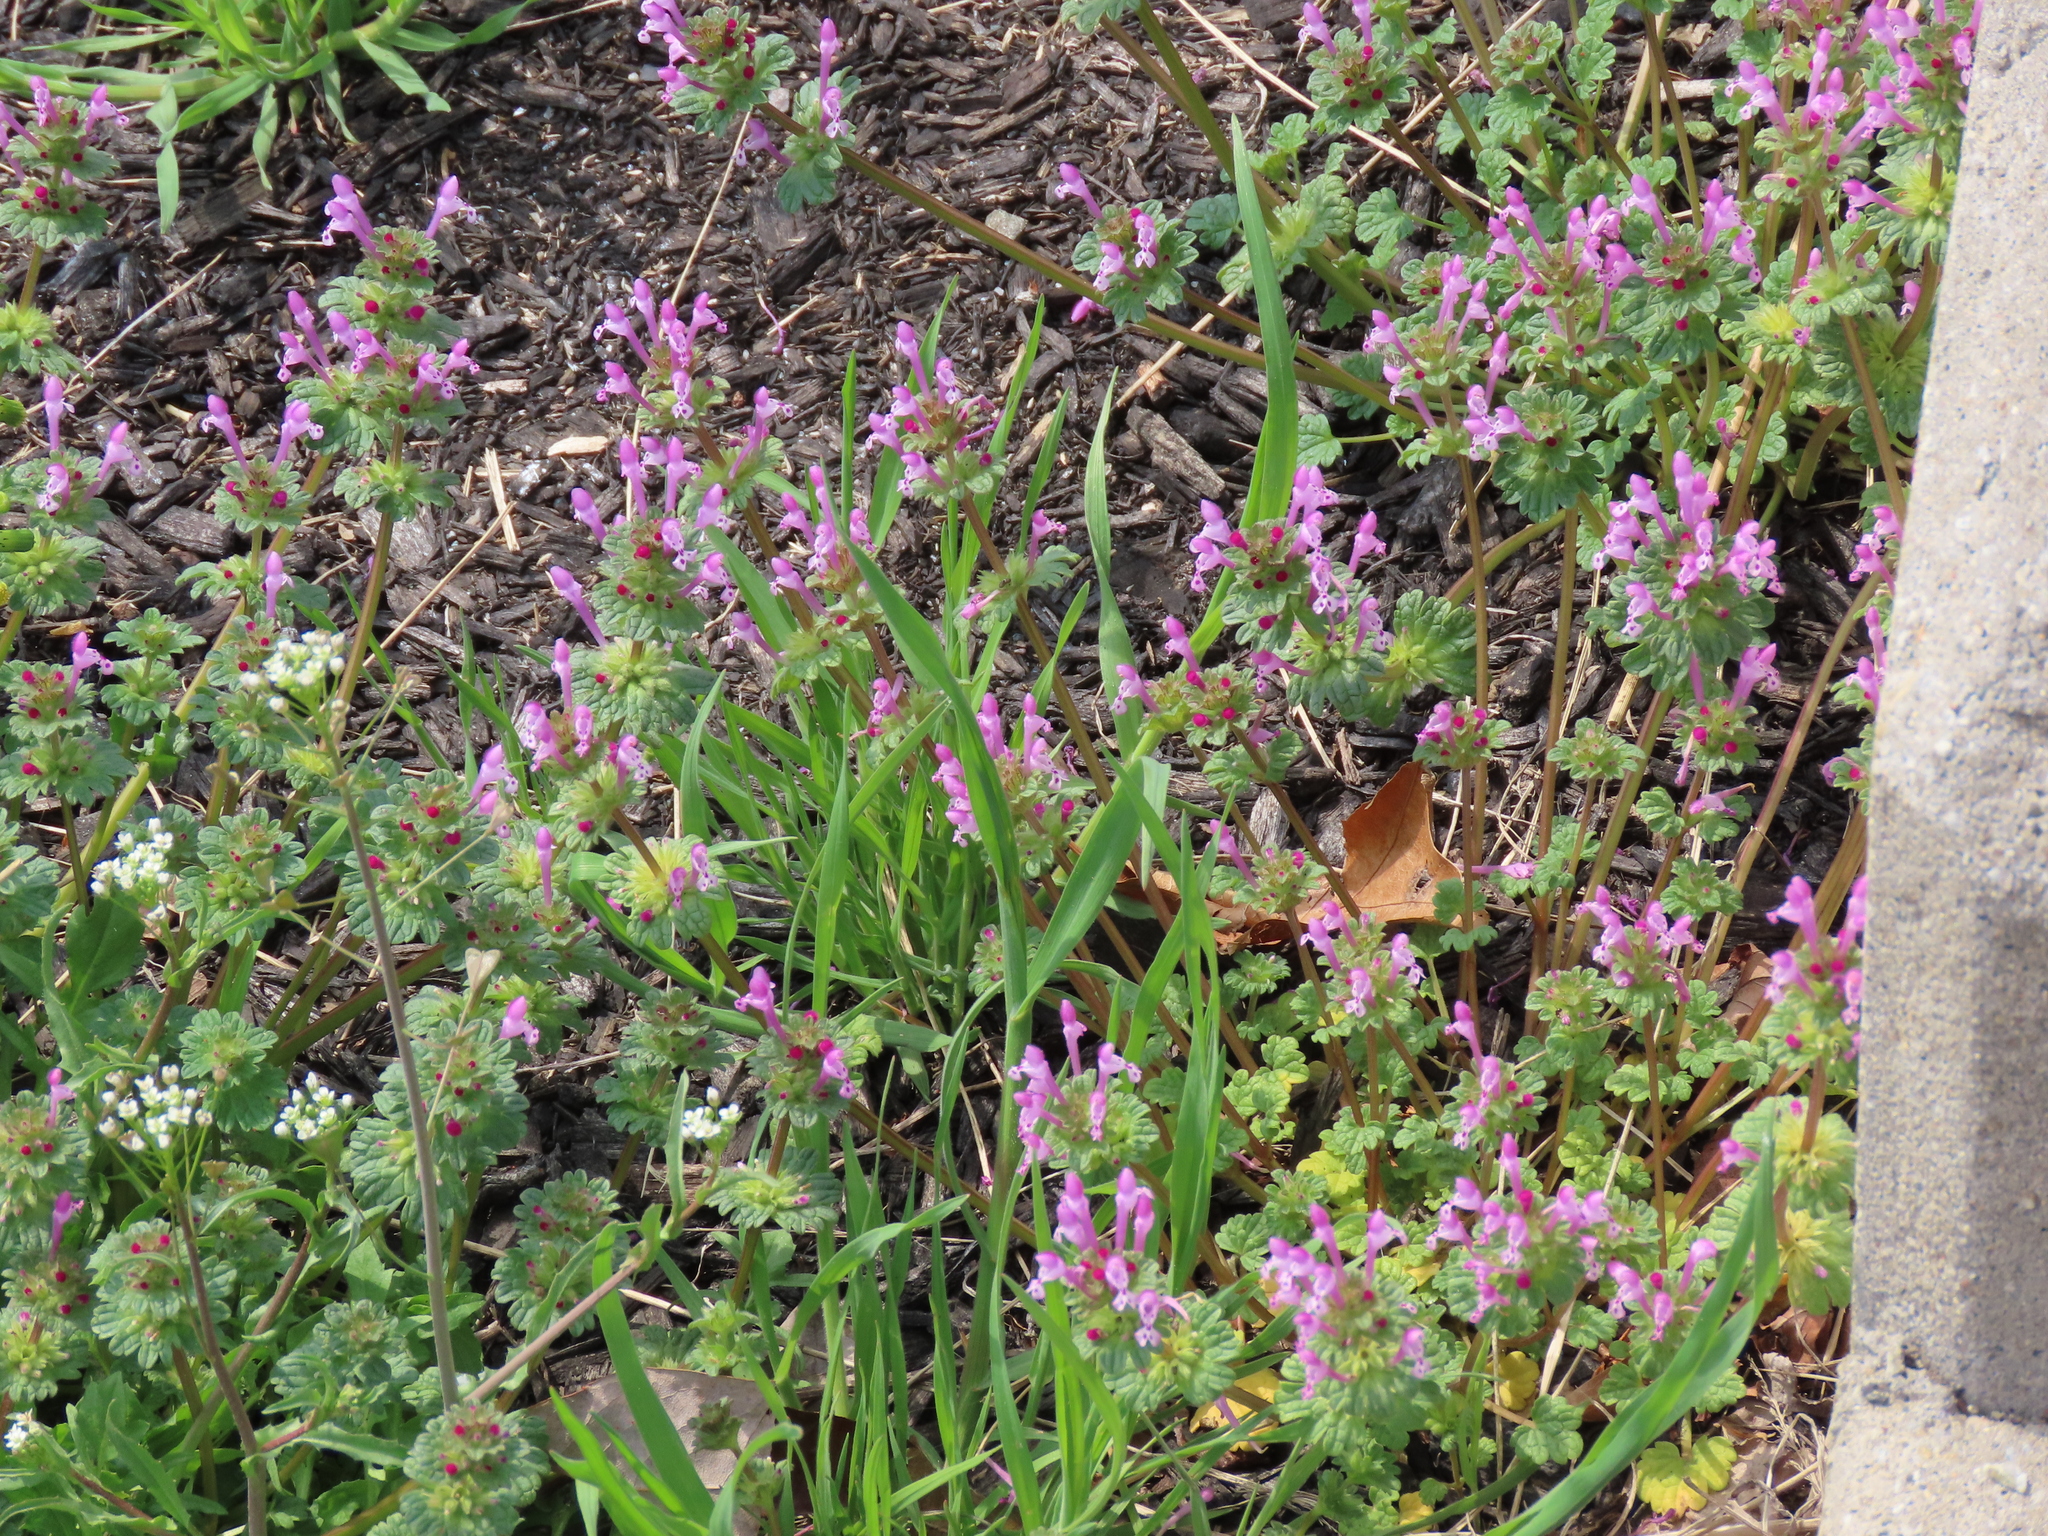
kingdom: Plantae
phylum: Tracheophyta
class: Magnoliopsida
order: Lamiales
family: Lamiaceae
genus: Lamium
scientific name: Lamium amplexicaule
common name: Henbit dead-nettle
